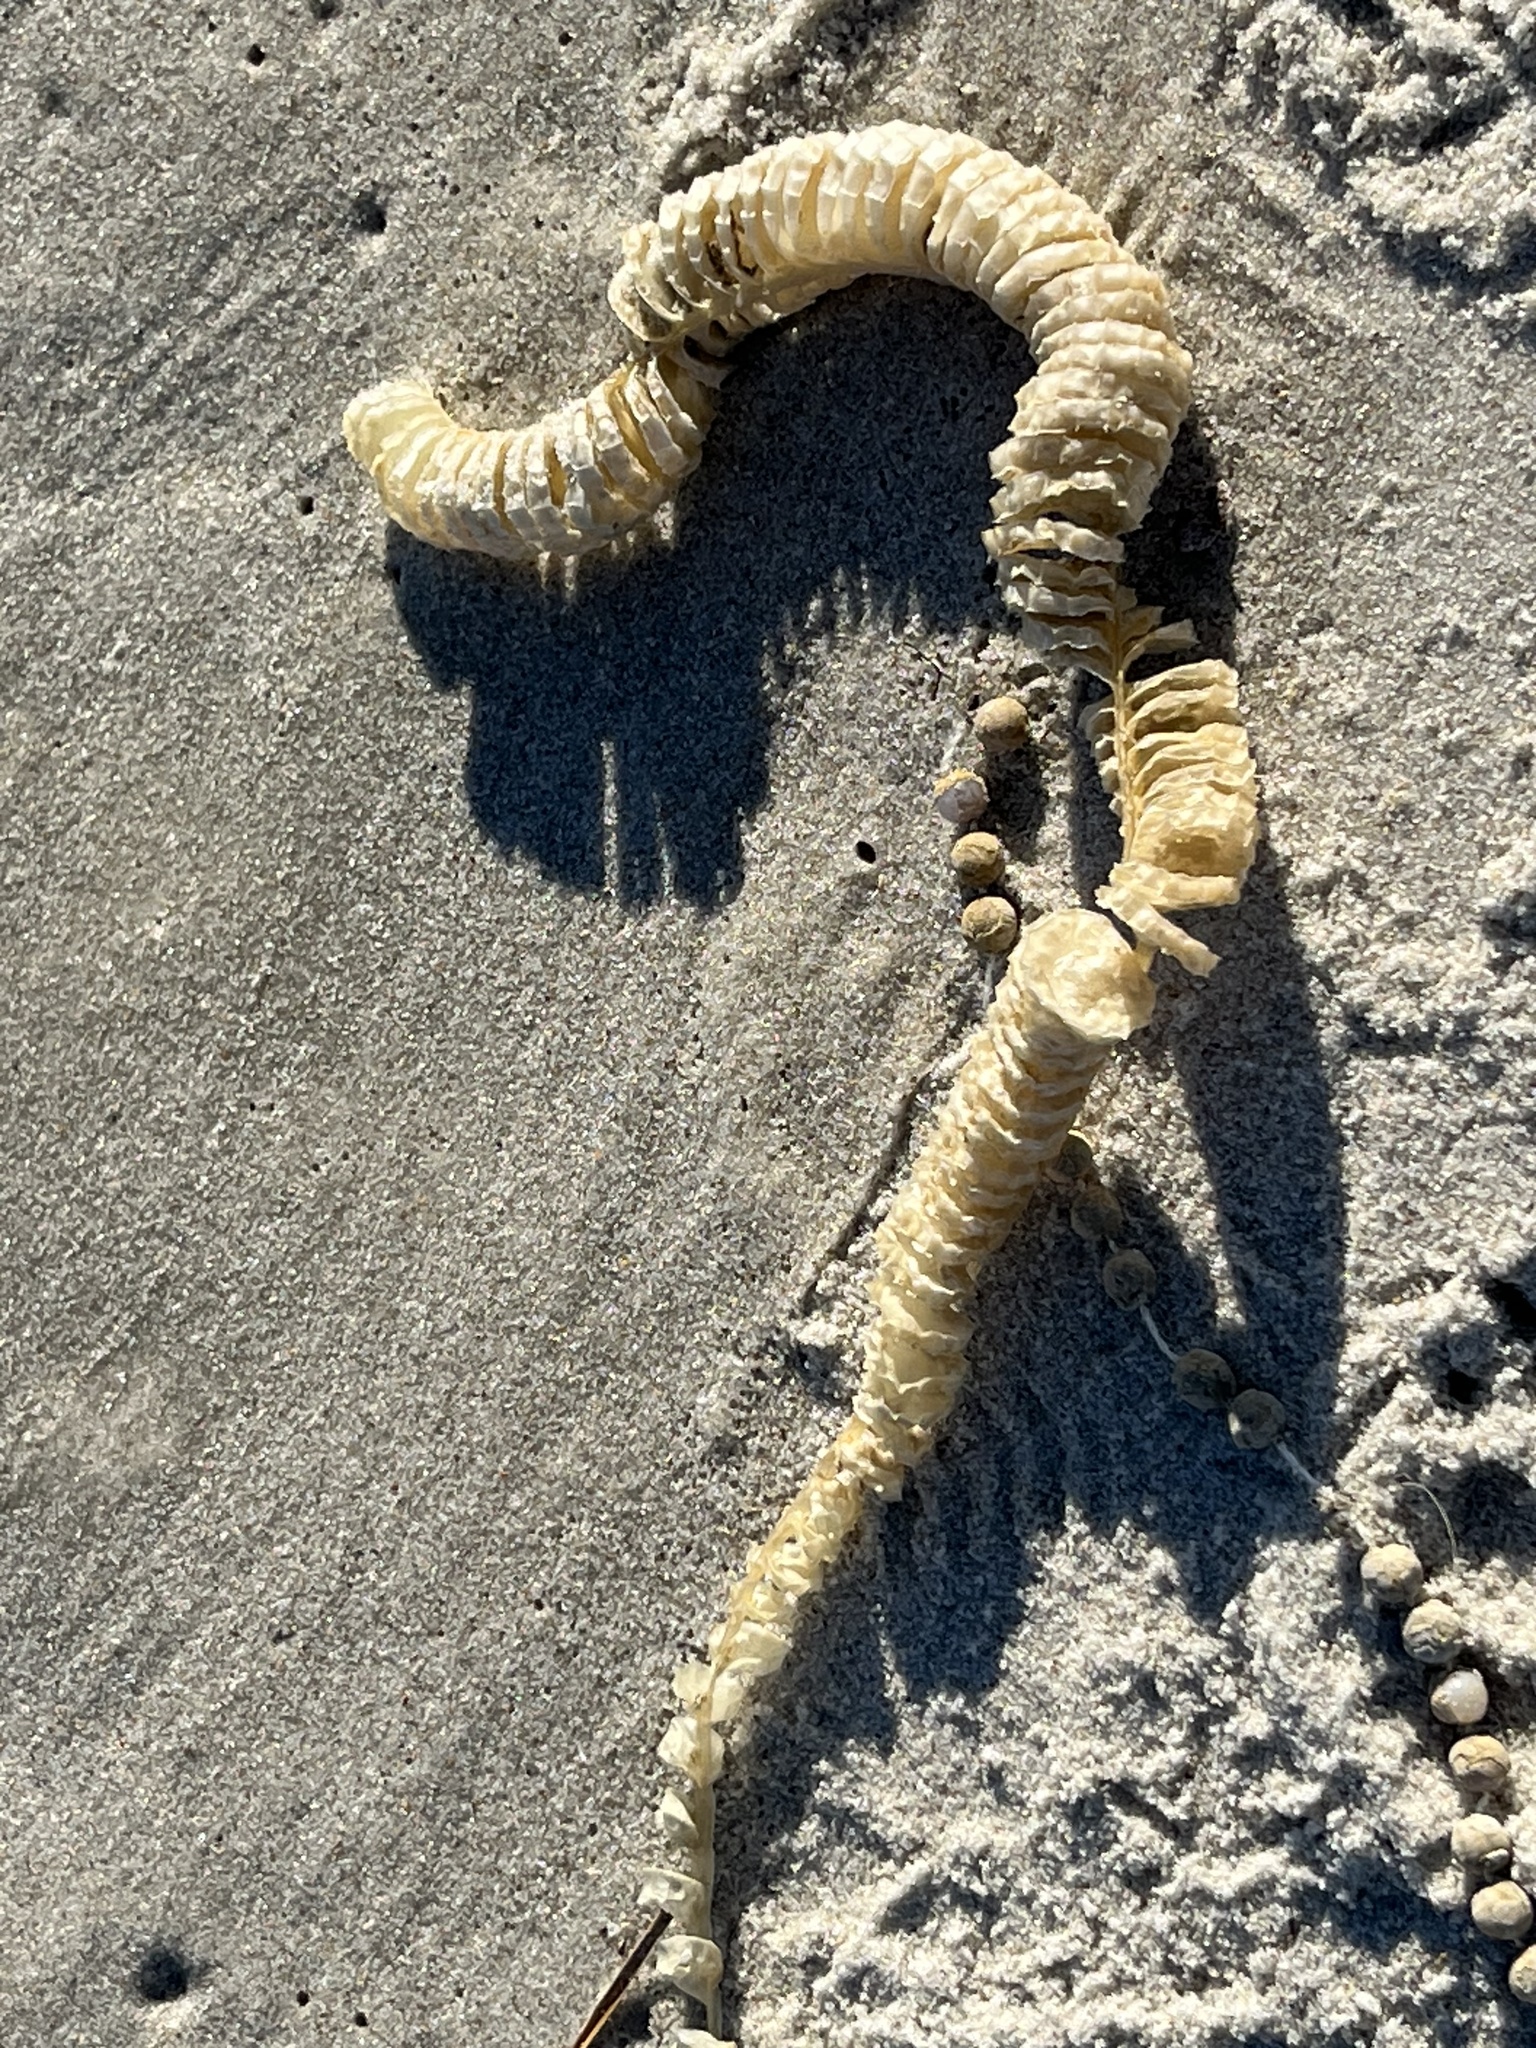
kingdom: Animalia
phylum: Mollusca
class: Gastropoda
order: Neogastropoda
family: Busyconidae
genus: Busycon
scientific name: Busycon carica
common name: Knobbed whelk
